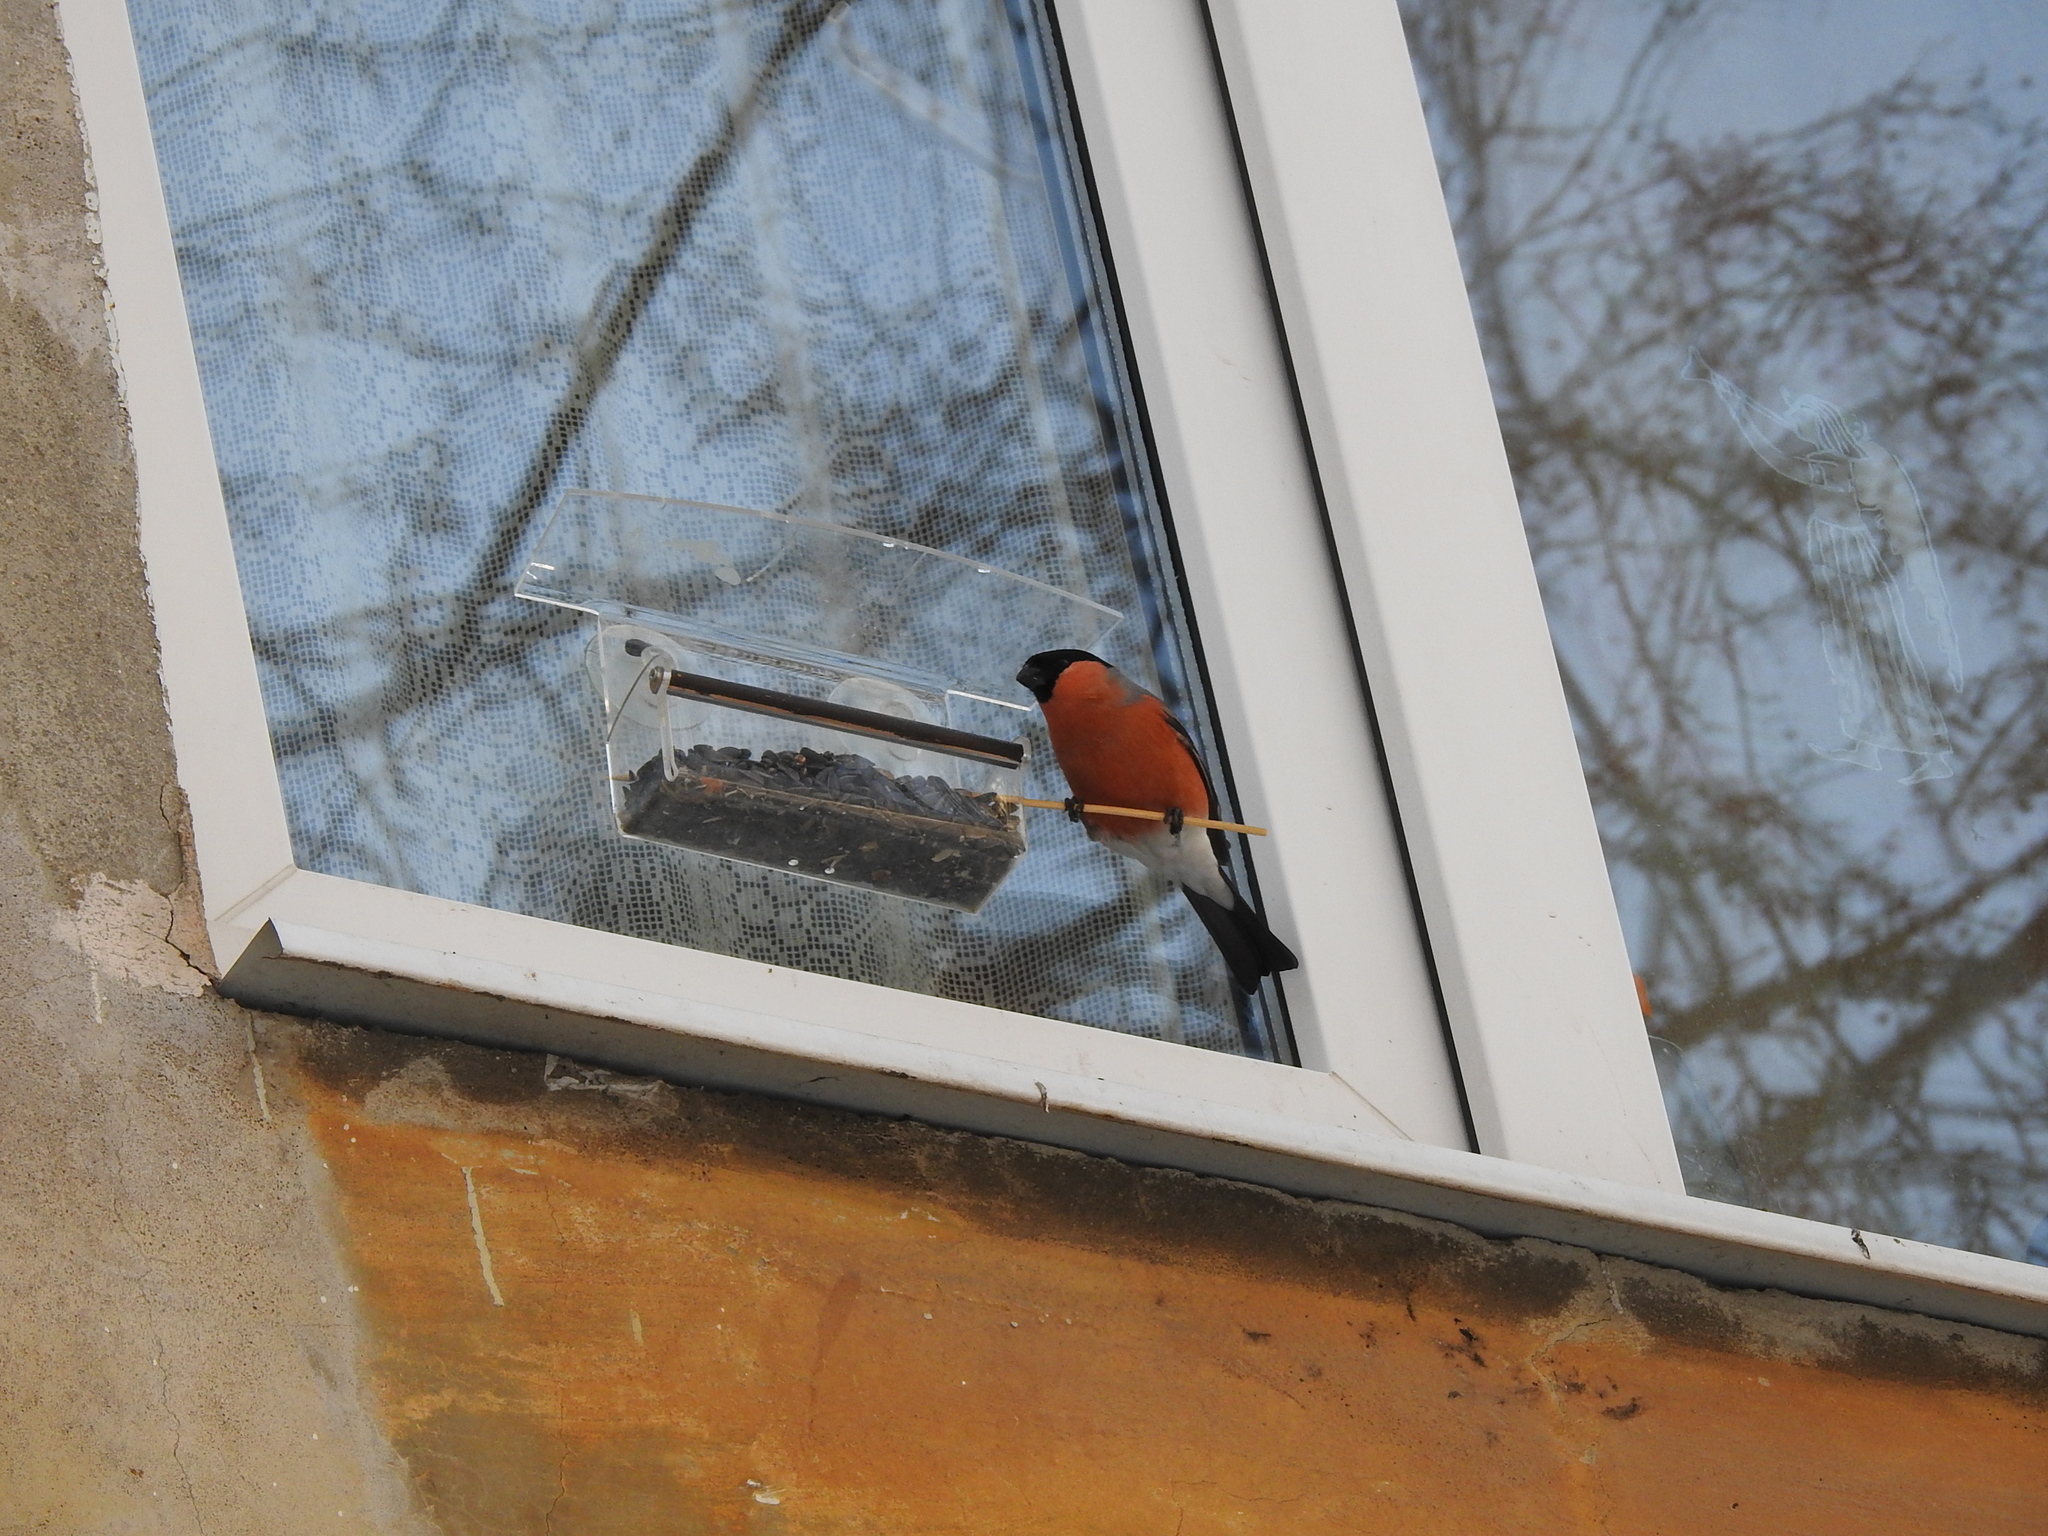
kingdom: Animalia
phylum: Chordata
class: Aves
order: Passeriformes
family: Fringillidae
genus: Pyrrhula
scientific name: Pyrrhula pyrrhula
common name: Eurasian bullfinch
